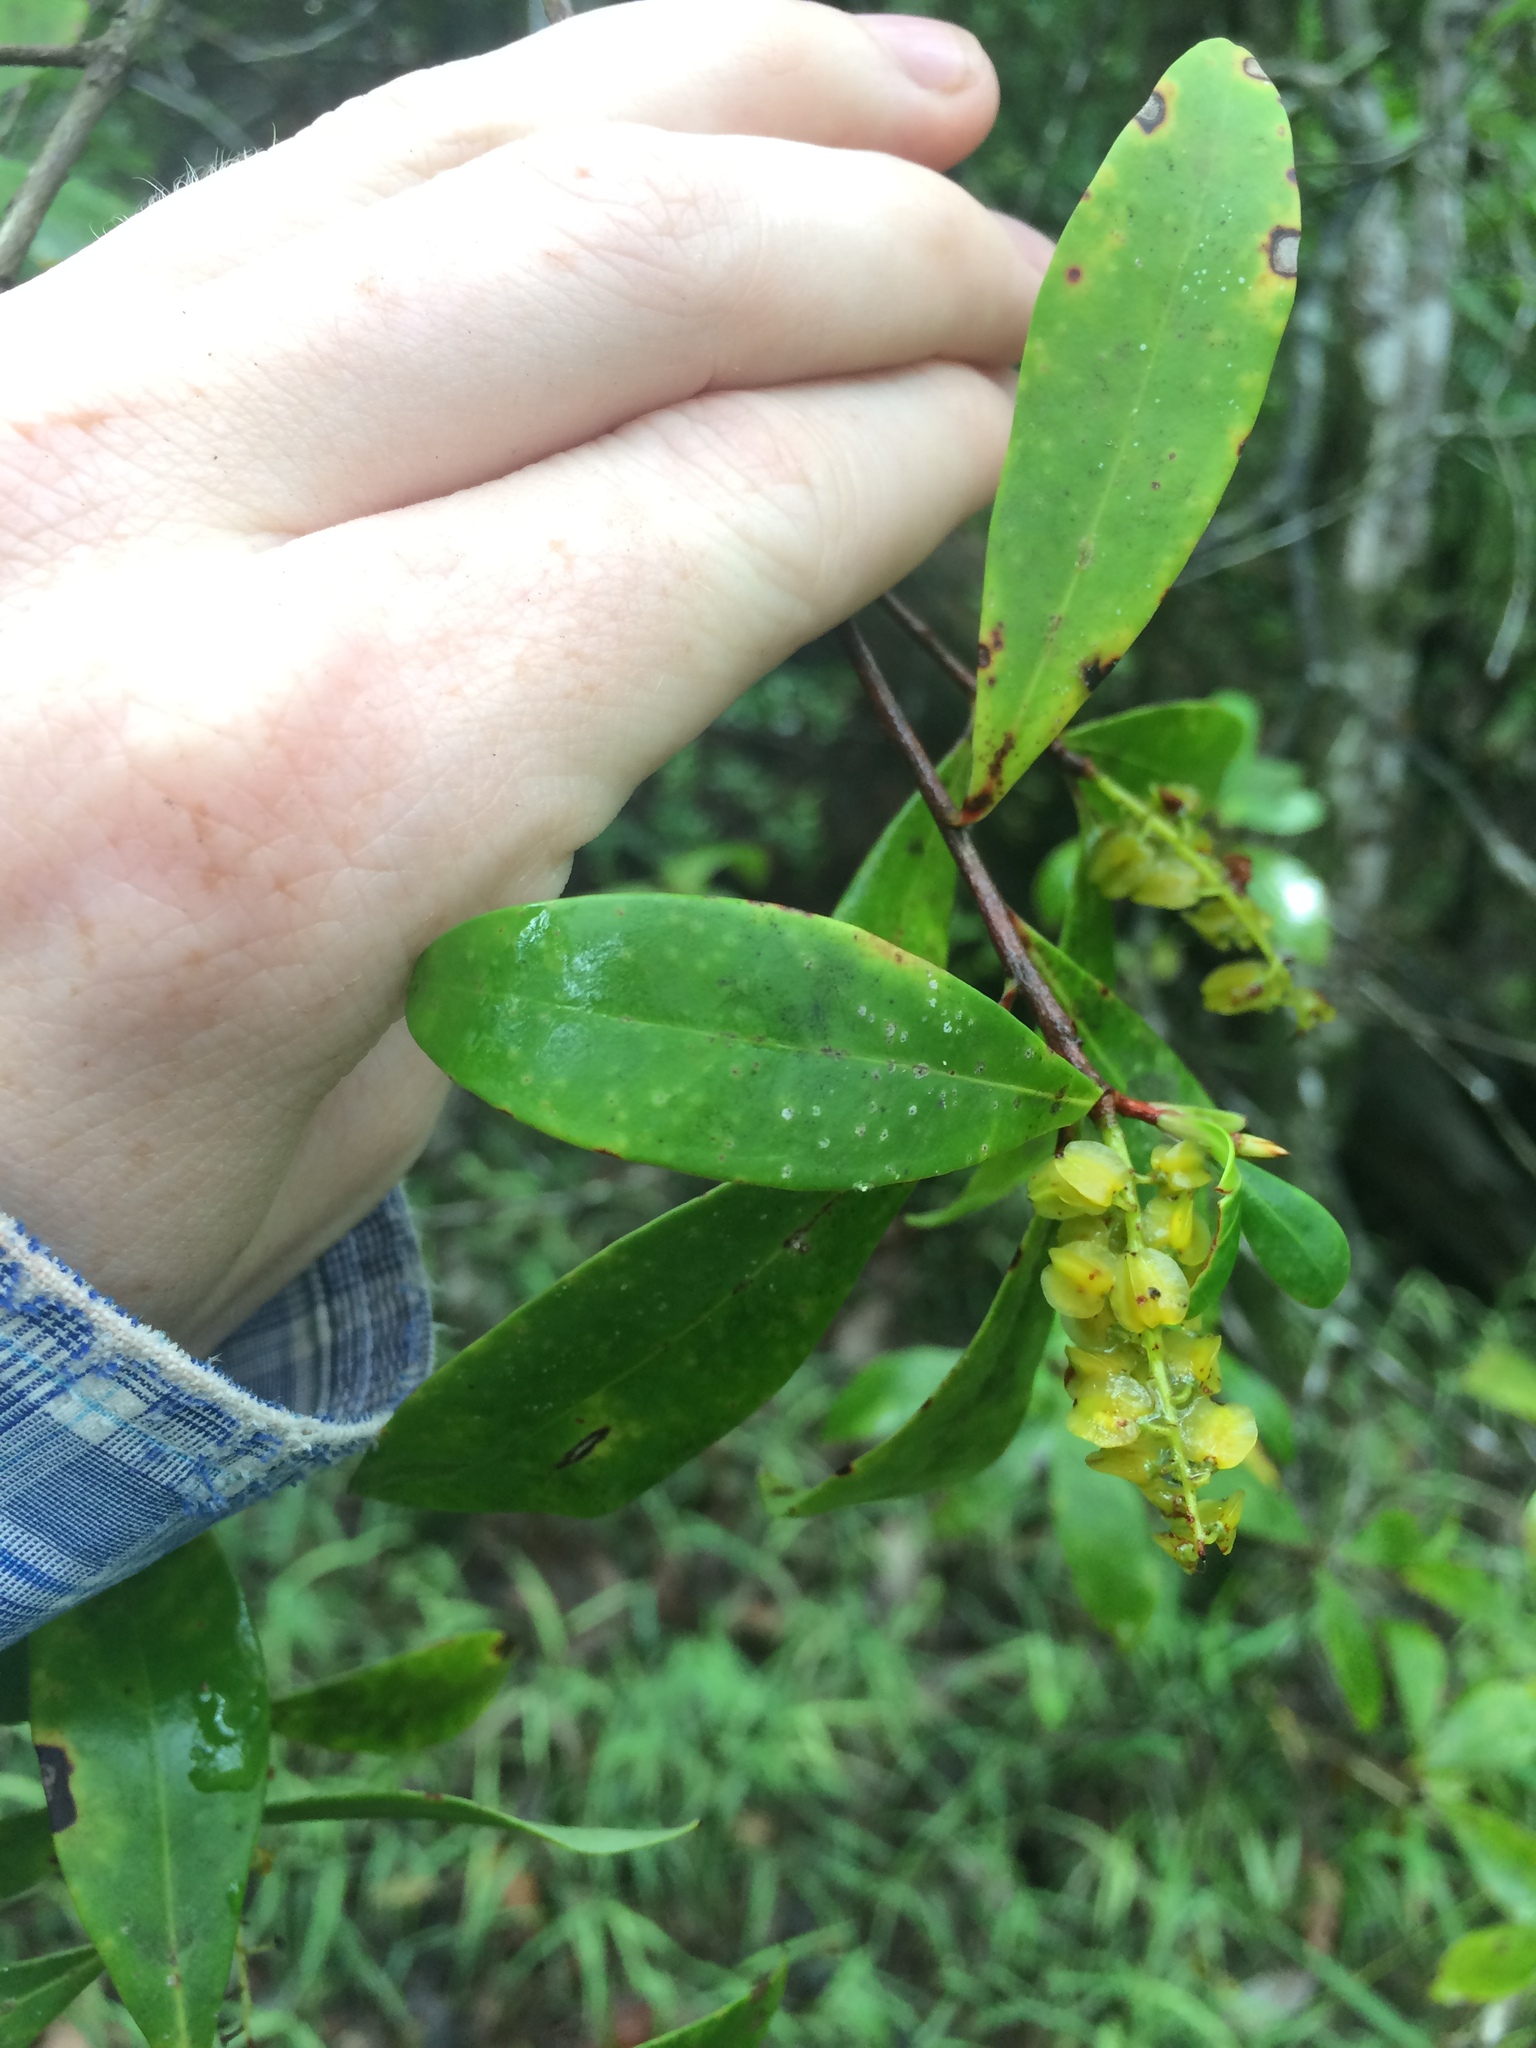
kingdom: Plantae
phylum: Tracheophyta
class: Magnoliopsida
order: Ericales
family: Cyrillaceae
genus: Cliftonia
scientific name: Cliftonia monophylla
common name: Titi
